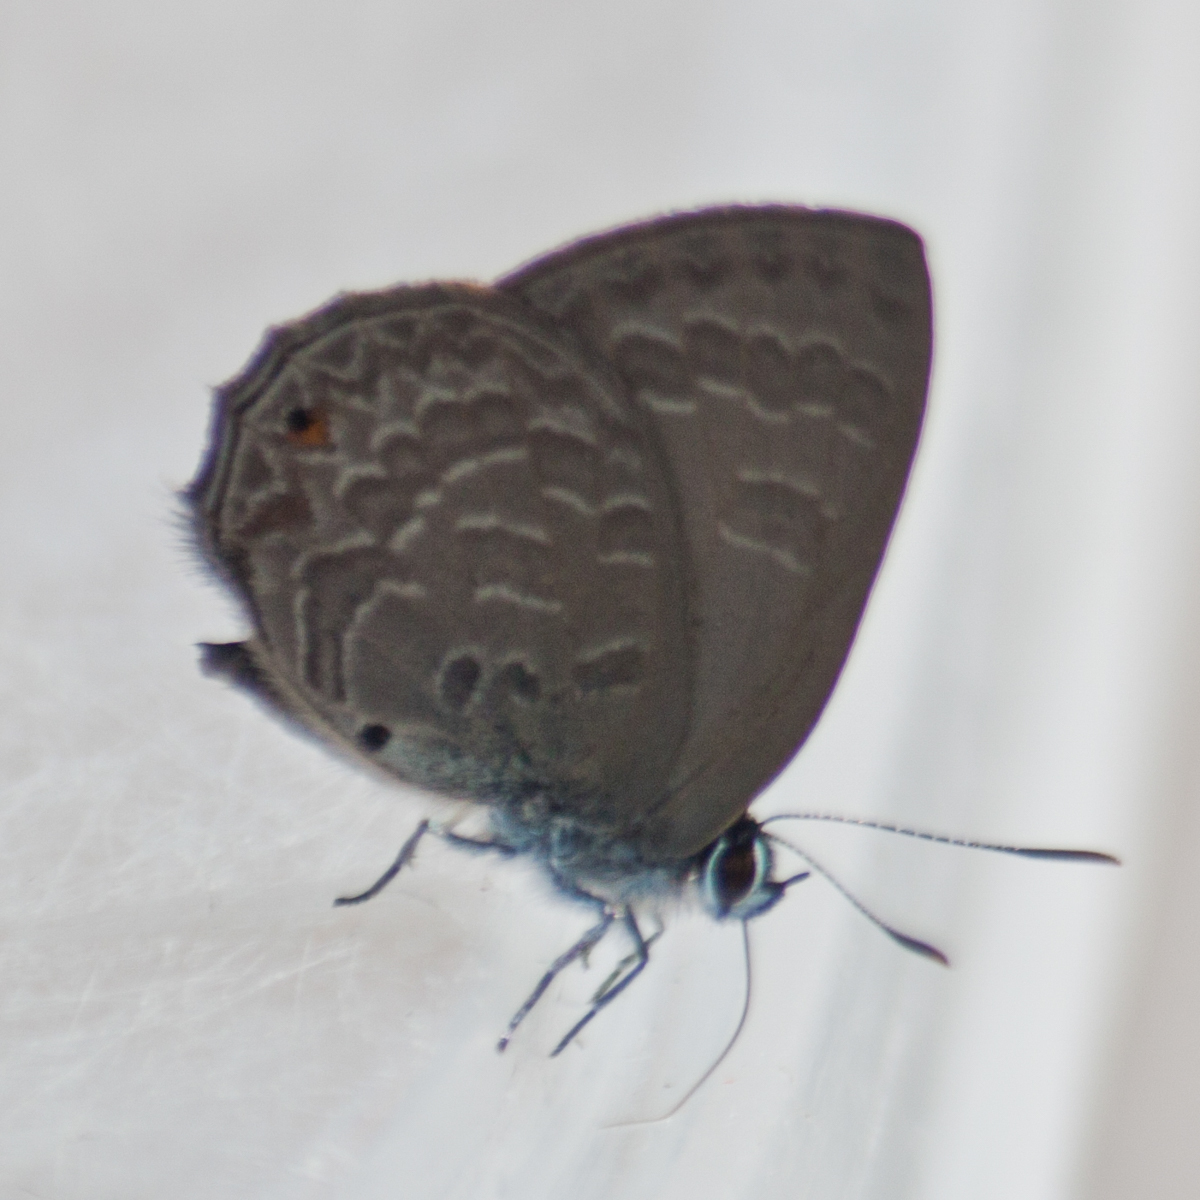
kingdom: Animalia
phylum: Arthropoda
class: Insecta
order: Lepidoptera
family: Lycaenidae
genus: Anthene
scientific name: Anthene emolus
